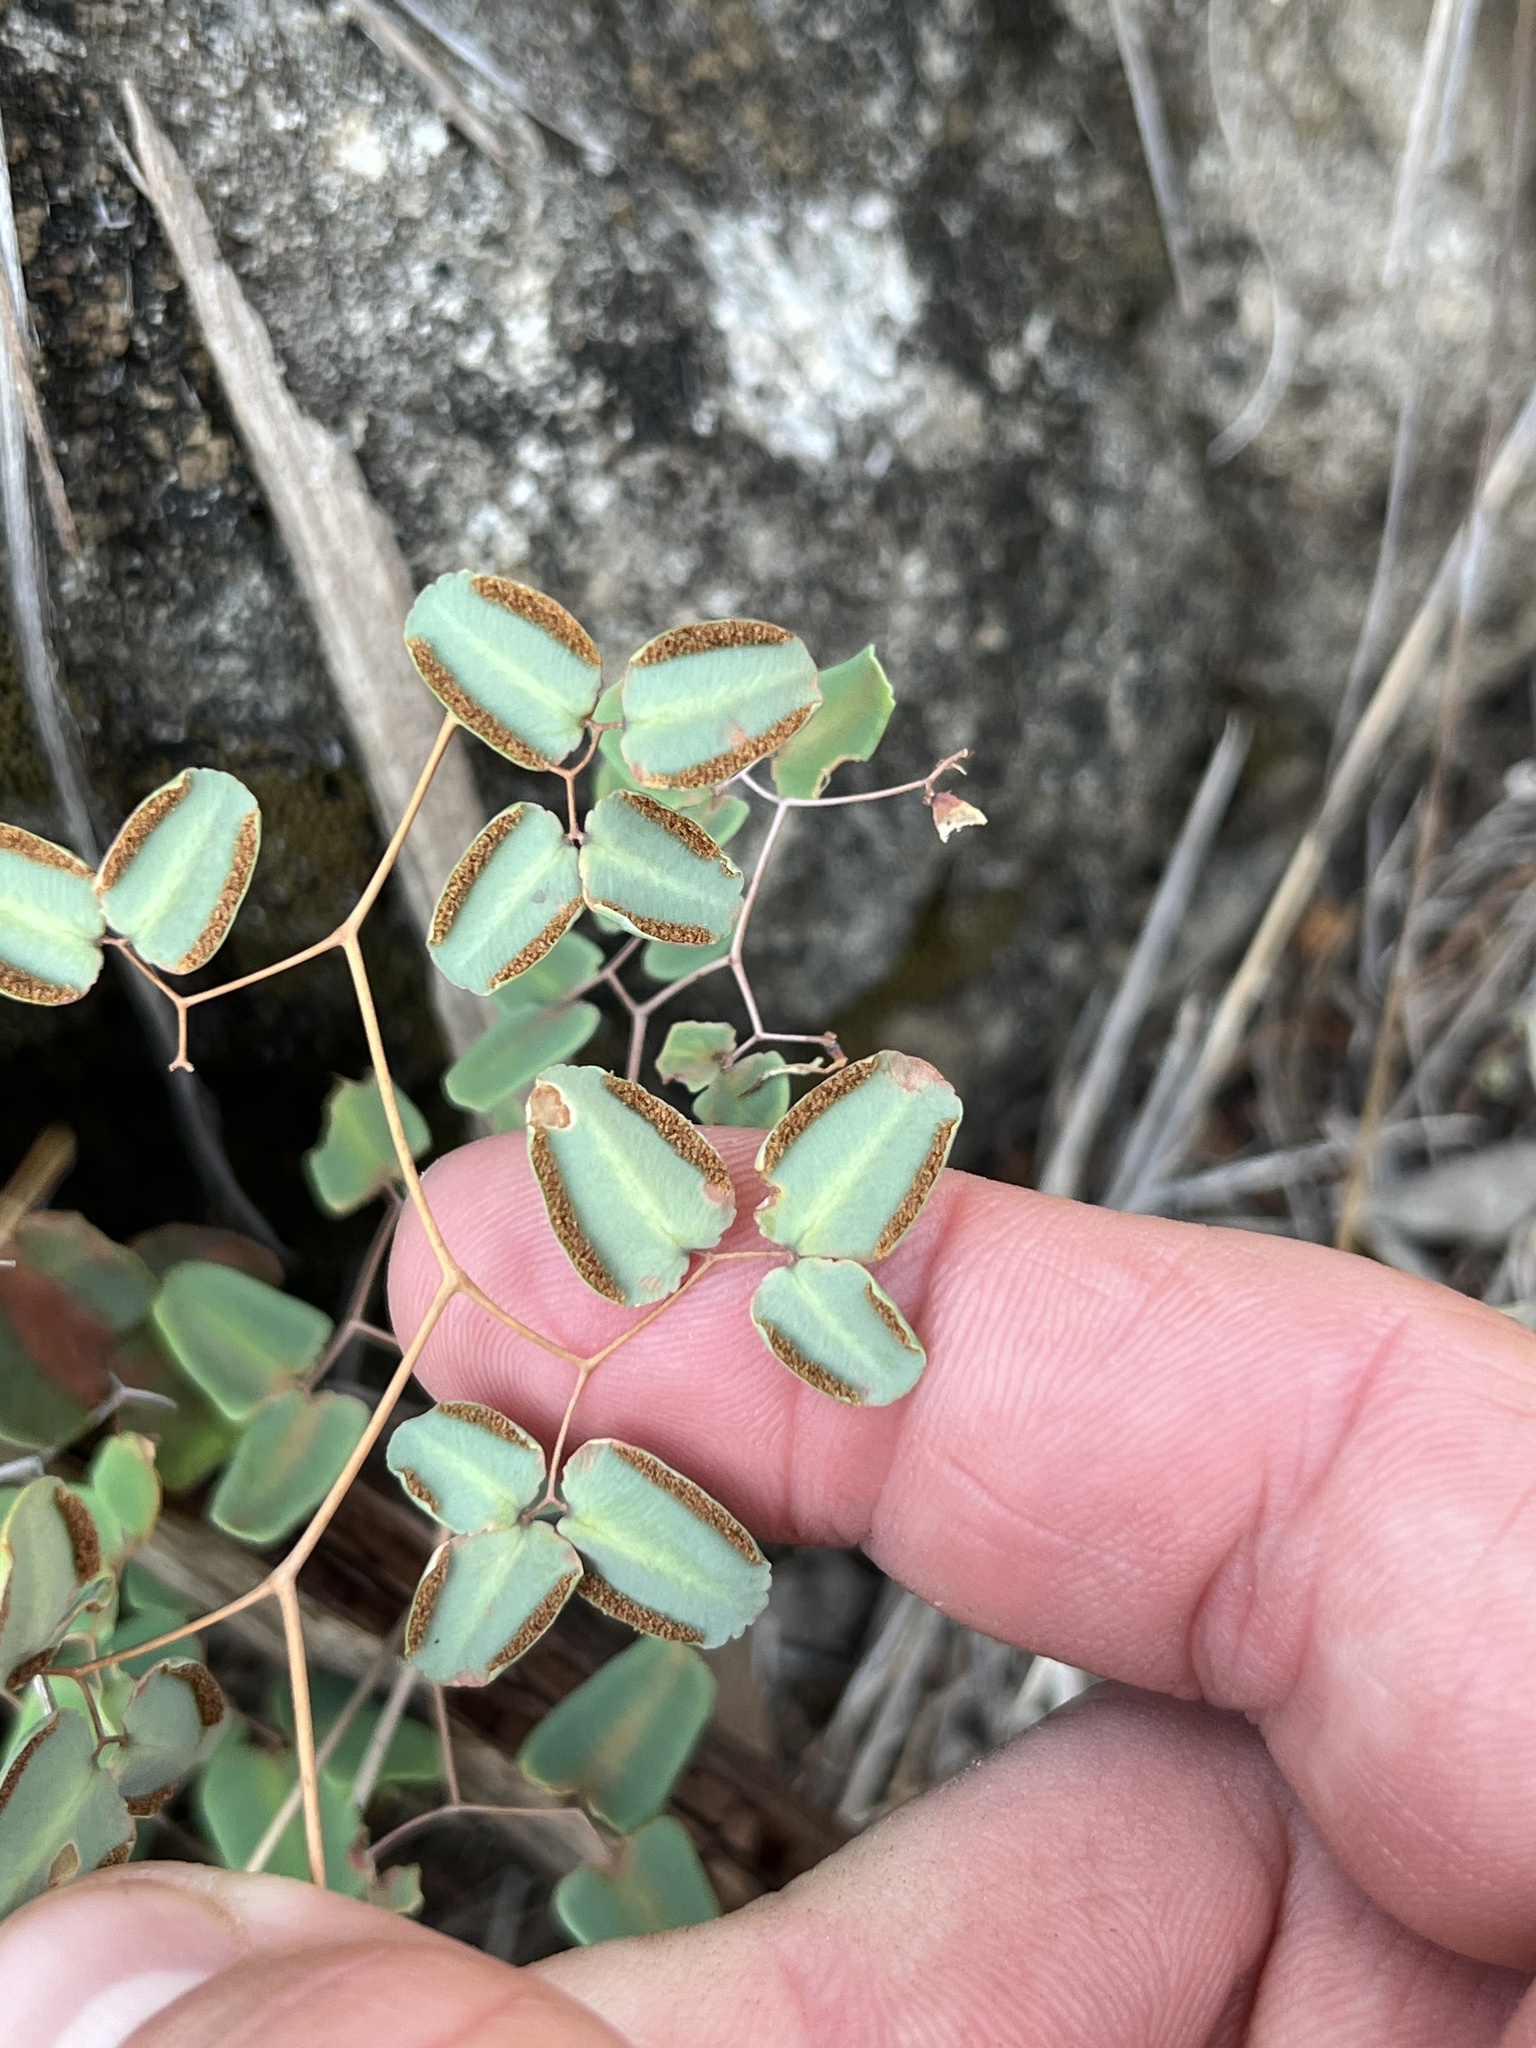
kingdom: Plantae
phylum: Tracheophyta
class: Polypodiopsida
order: Polypodiales
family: Pteridaceae
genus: Pellaea
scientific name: Pellaea ovata
